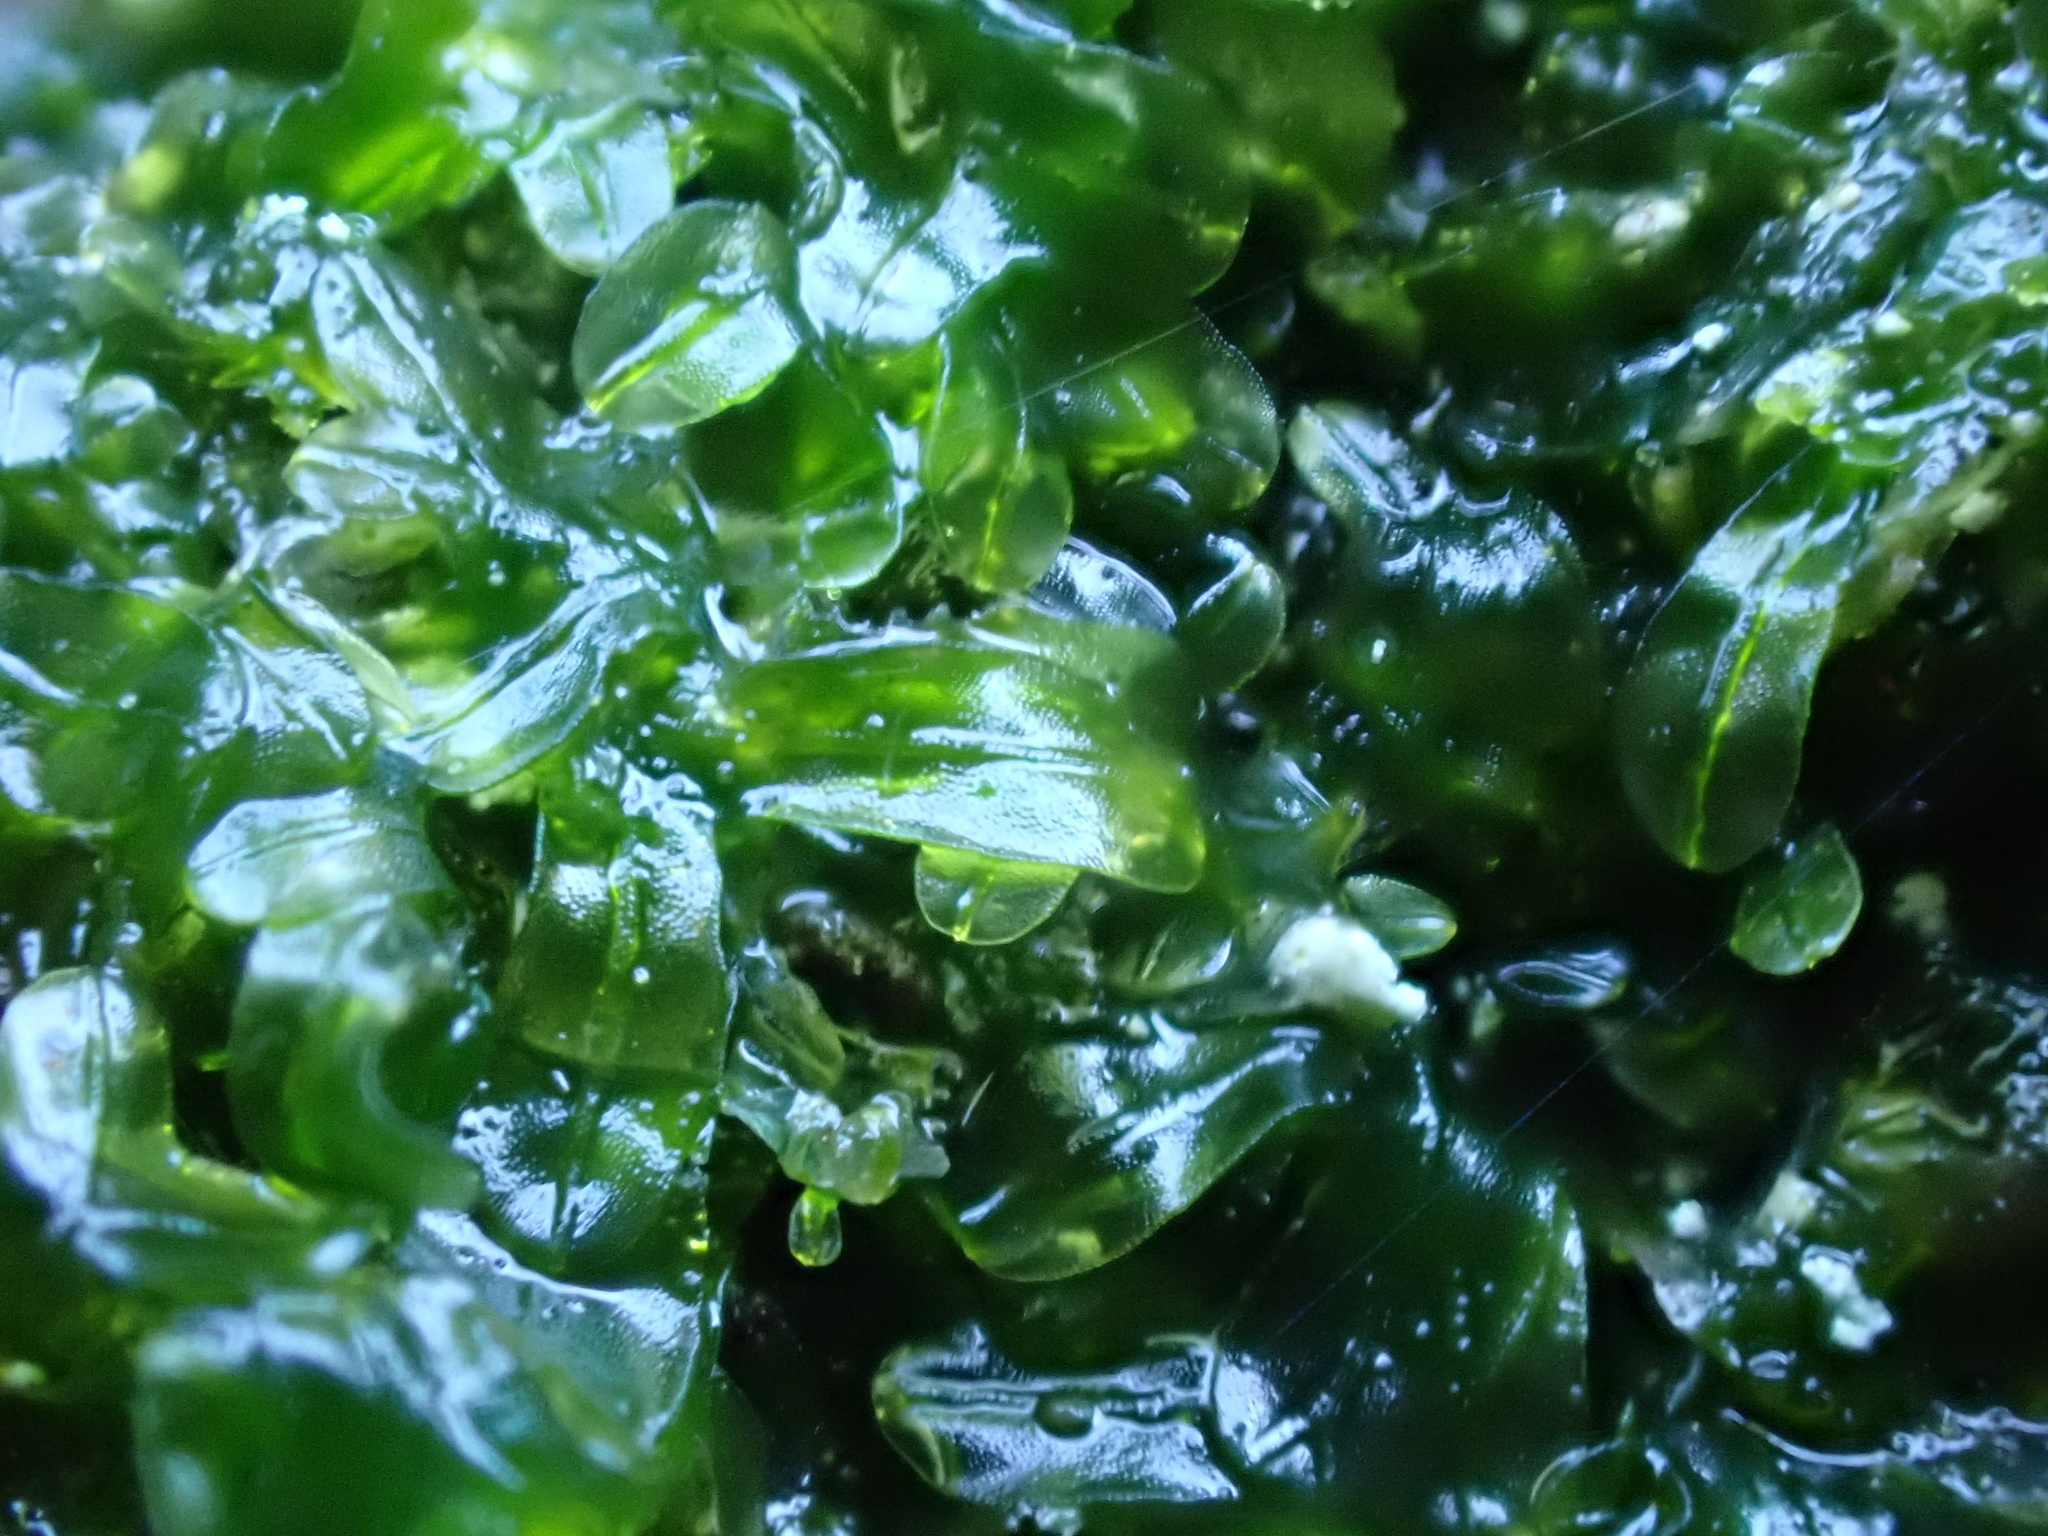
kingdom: Plantae
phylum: Marchantiophyta
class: Jungermanniopsida
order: Metzgeriales
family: Metzgeriaceae
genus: Metzgeria
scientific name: Metzgeria furcata
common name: Forked veilwort
